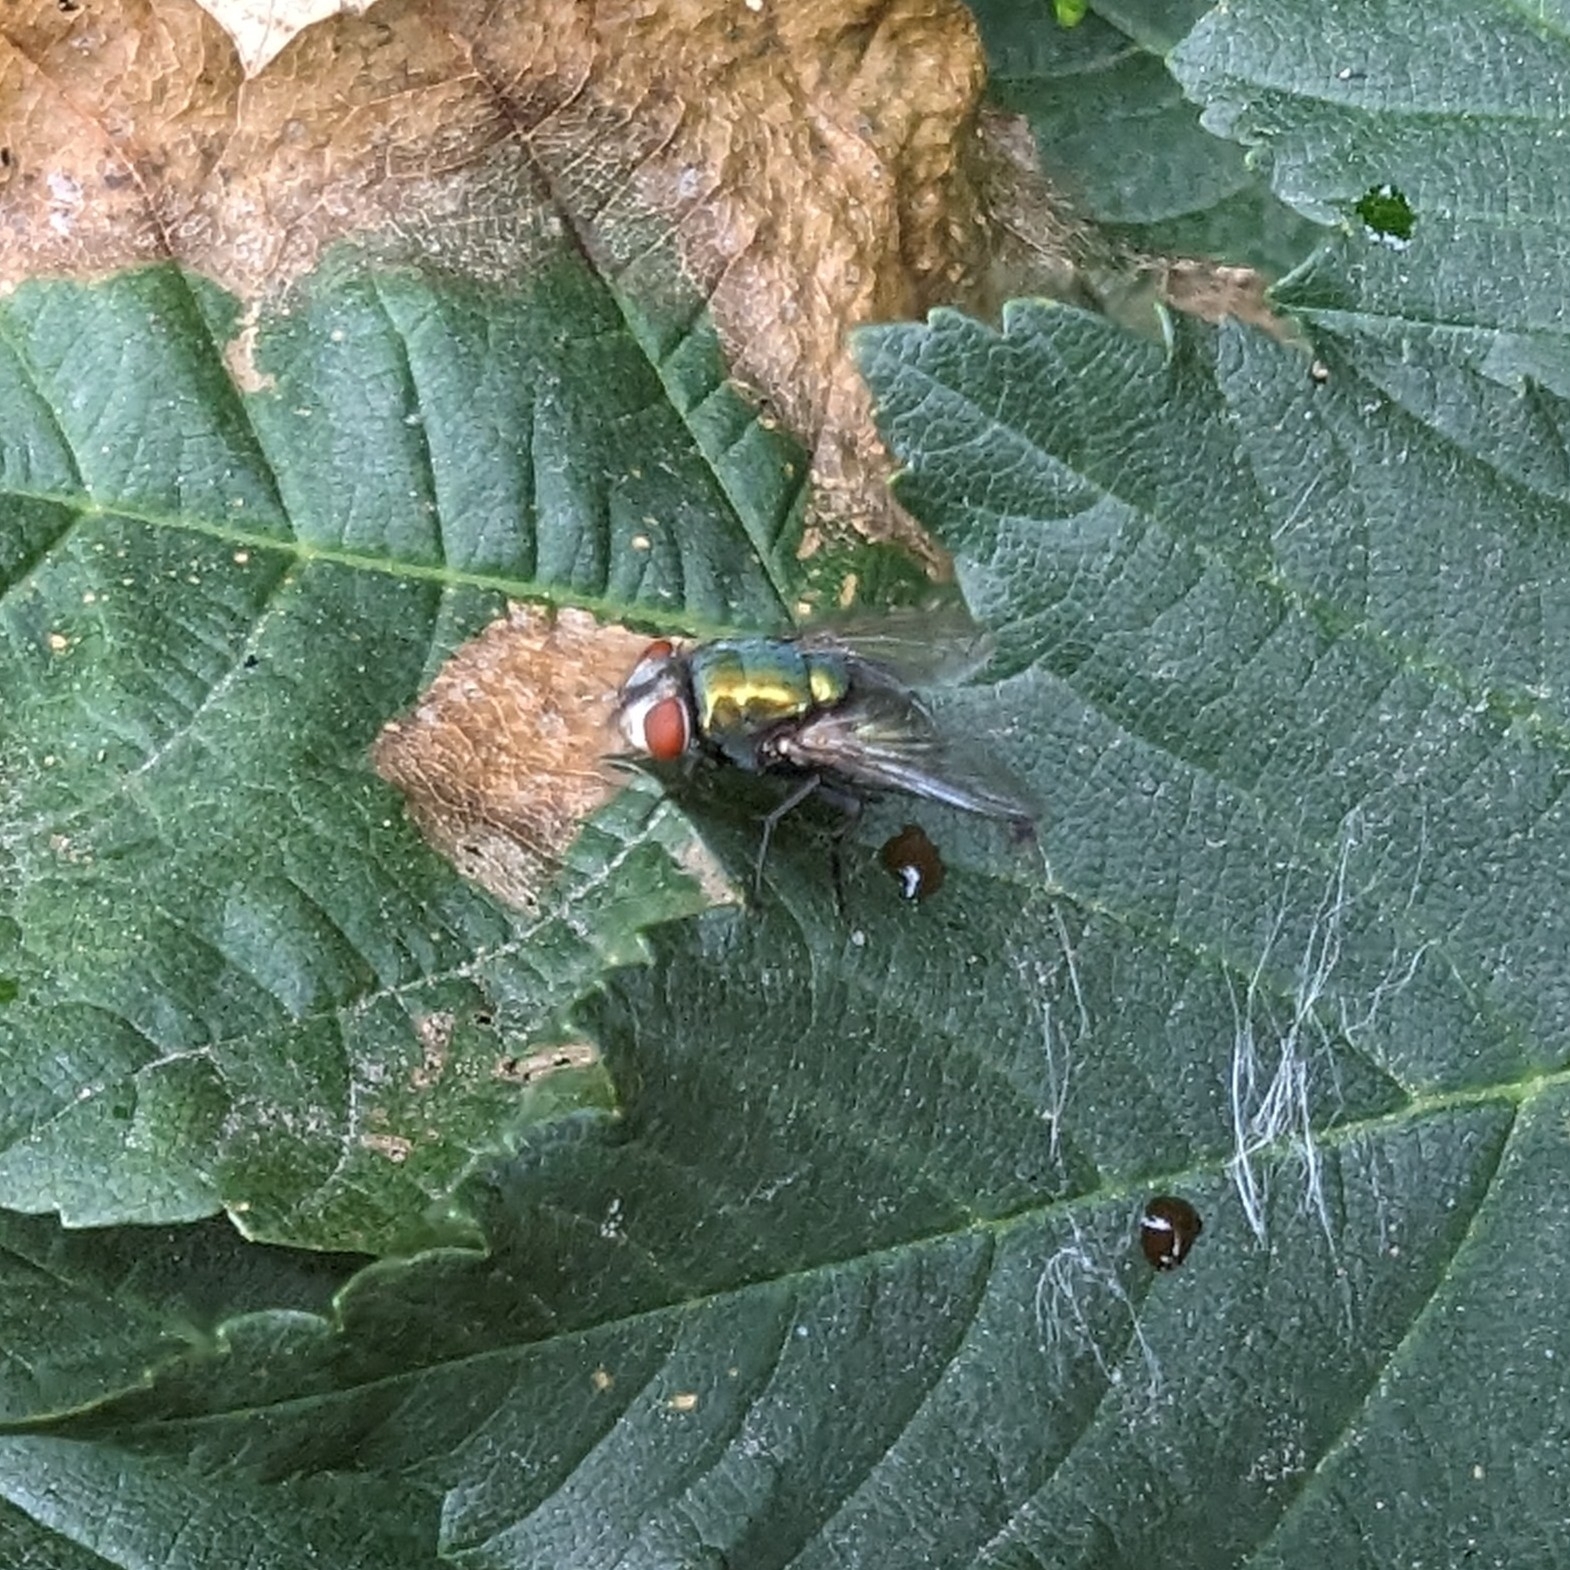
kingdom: Animalia
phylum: Arthropoda
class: Insecta
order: Diptera
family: Calliphoridae
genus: Lucilia
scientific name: Lucilia sericata
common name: Blow fly
